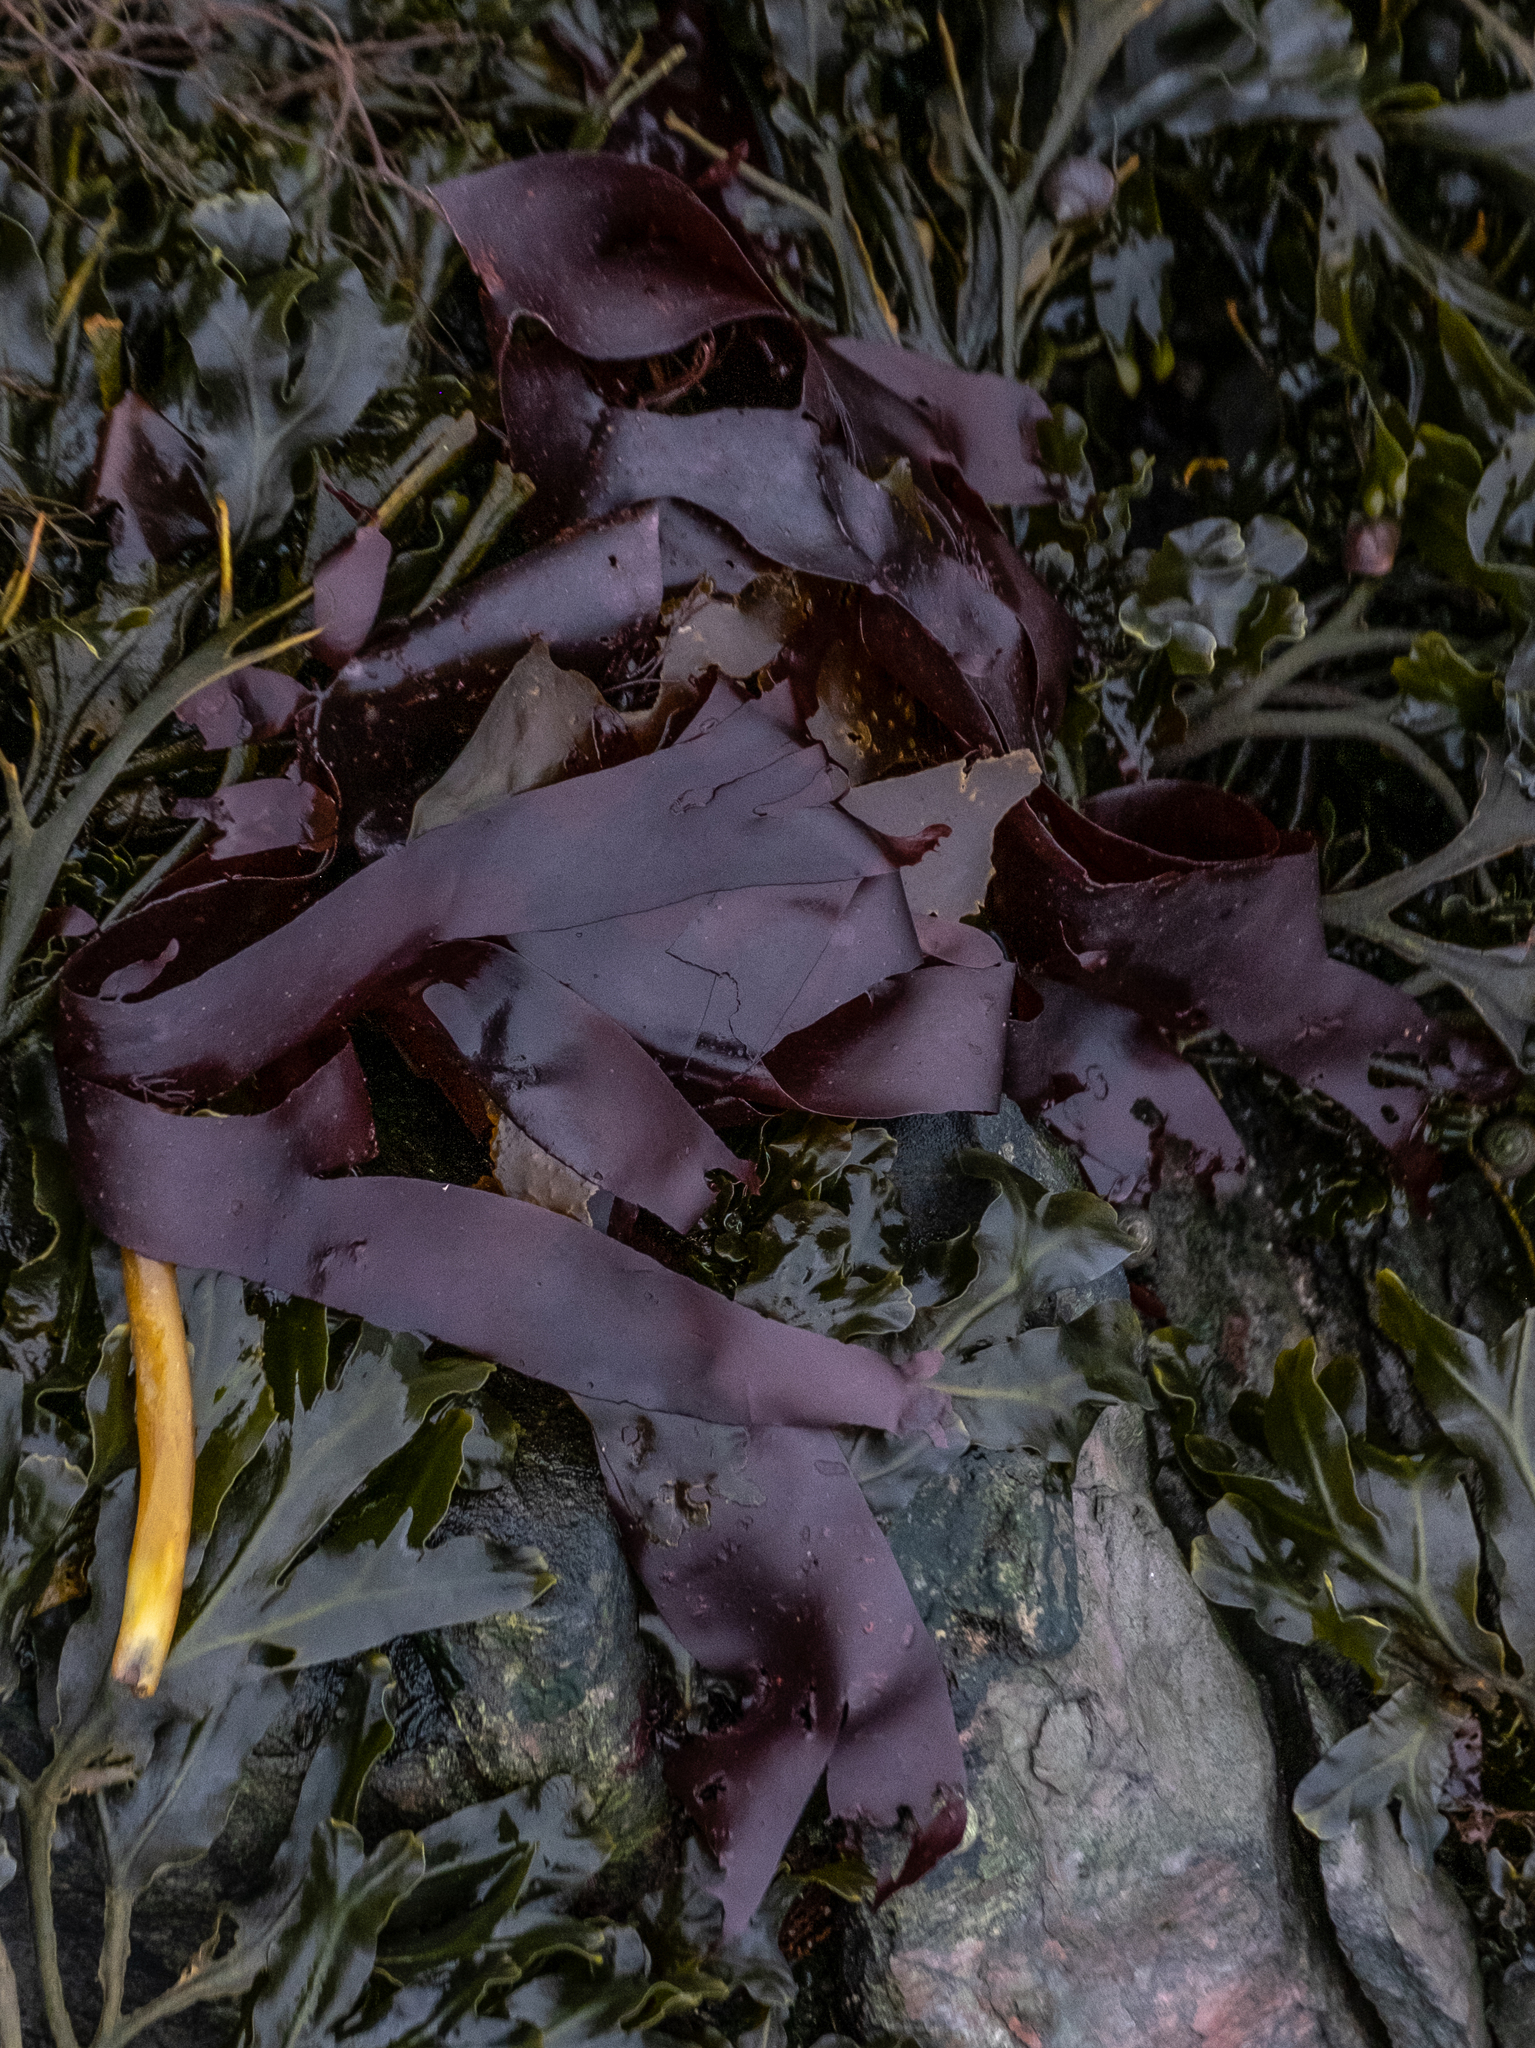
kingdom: Plantae
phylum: Rhodophyta
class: Florideophyceae
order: Palmariales
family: Palmariaceae
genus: Palmaria
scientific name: Palmaria palmata
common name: Dulse
